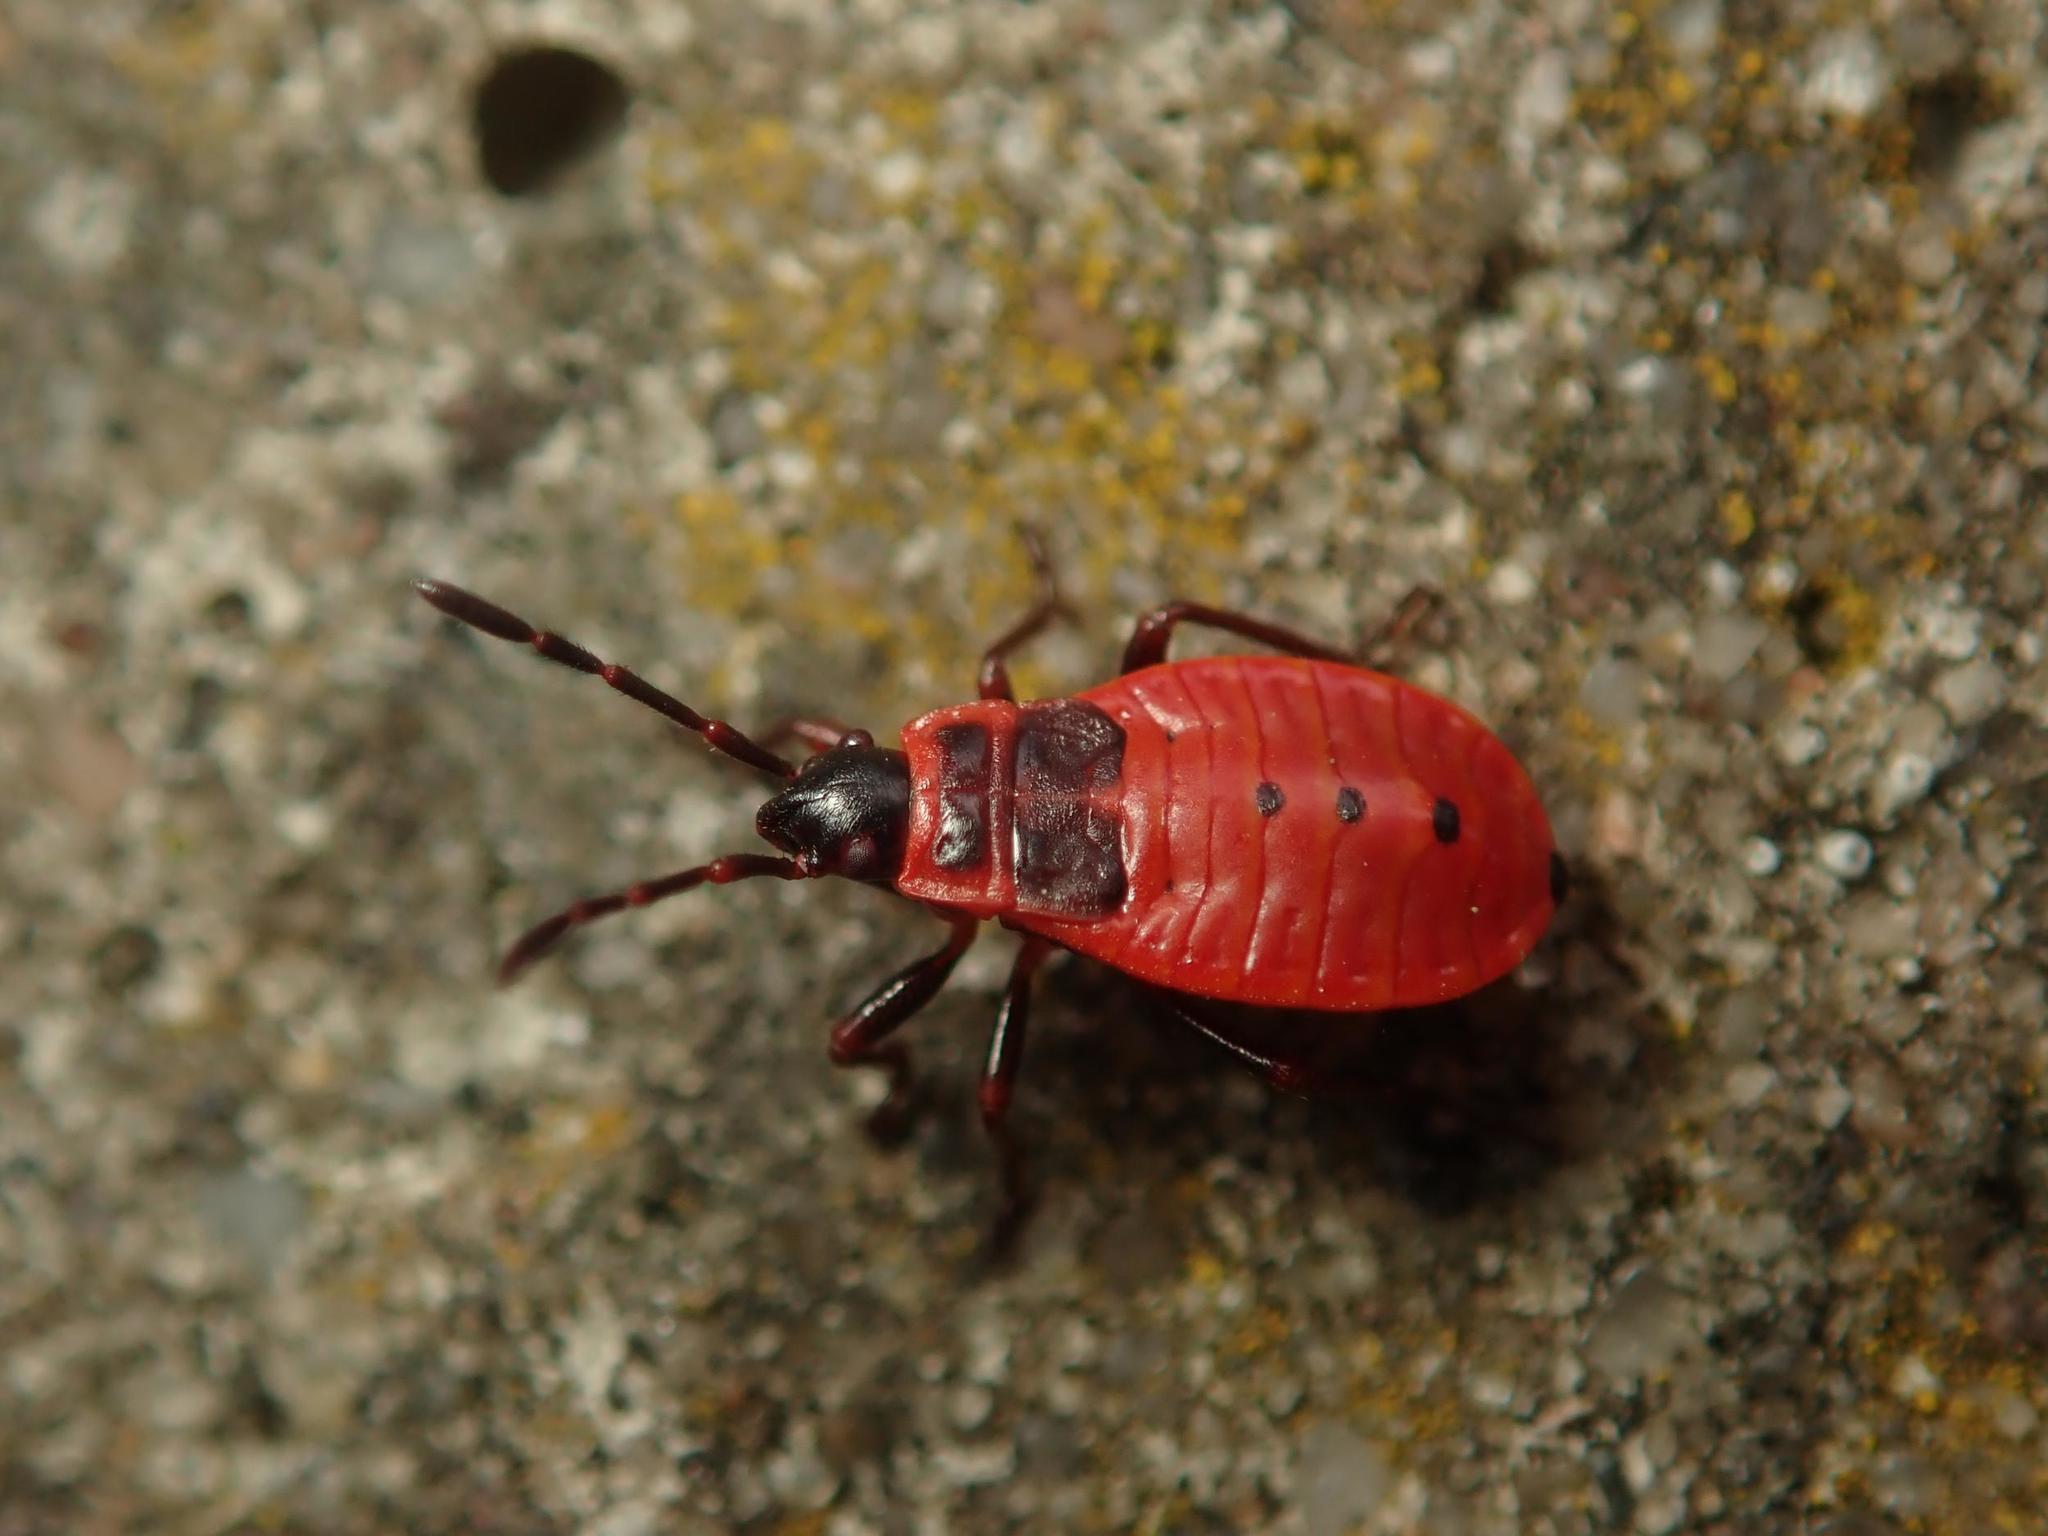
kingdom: Animalia
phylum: Arthropoda
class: Insecta
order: Hemiptera
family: Pyrrhocoridae
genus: Pyrrhocoris
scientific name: Pyrrhocoris apterus
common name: Firebug
